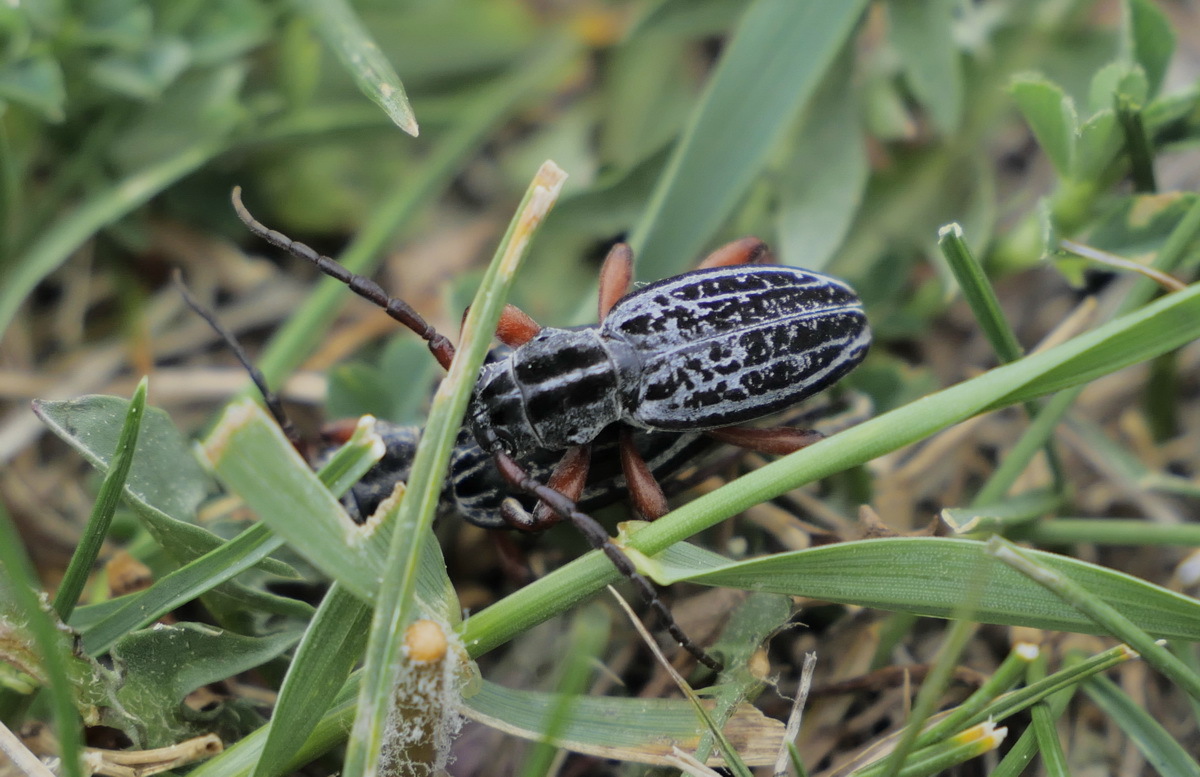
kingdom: Animalia
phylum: Arthropoda
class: Insecta
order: Coleoptera
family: Cerambycidae
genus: Dorcadion
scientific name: Dorcadion cretosum
